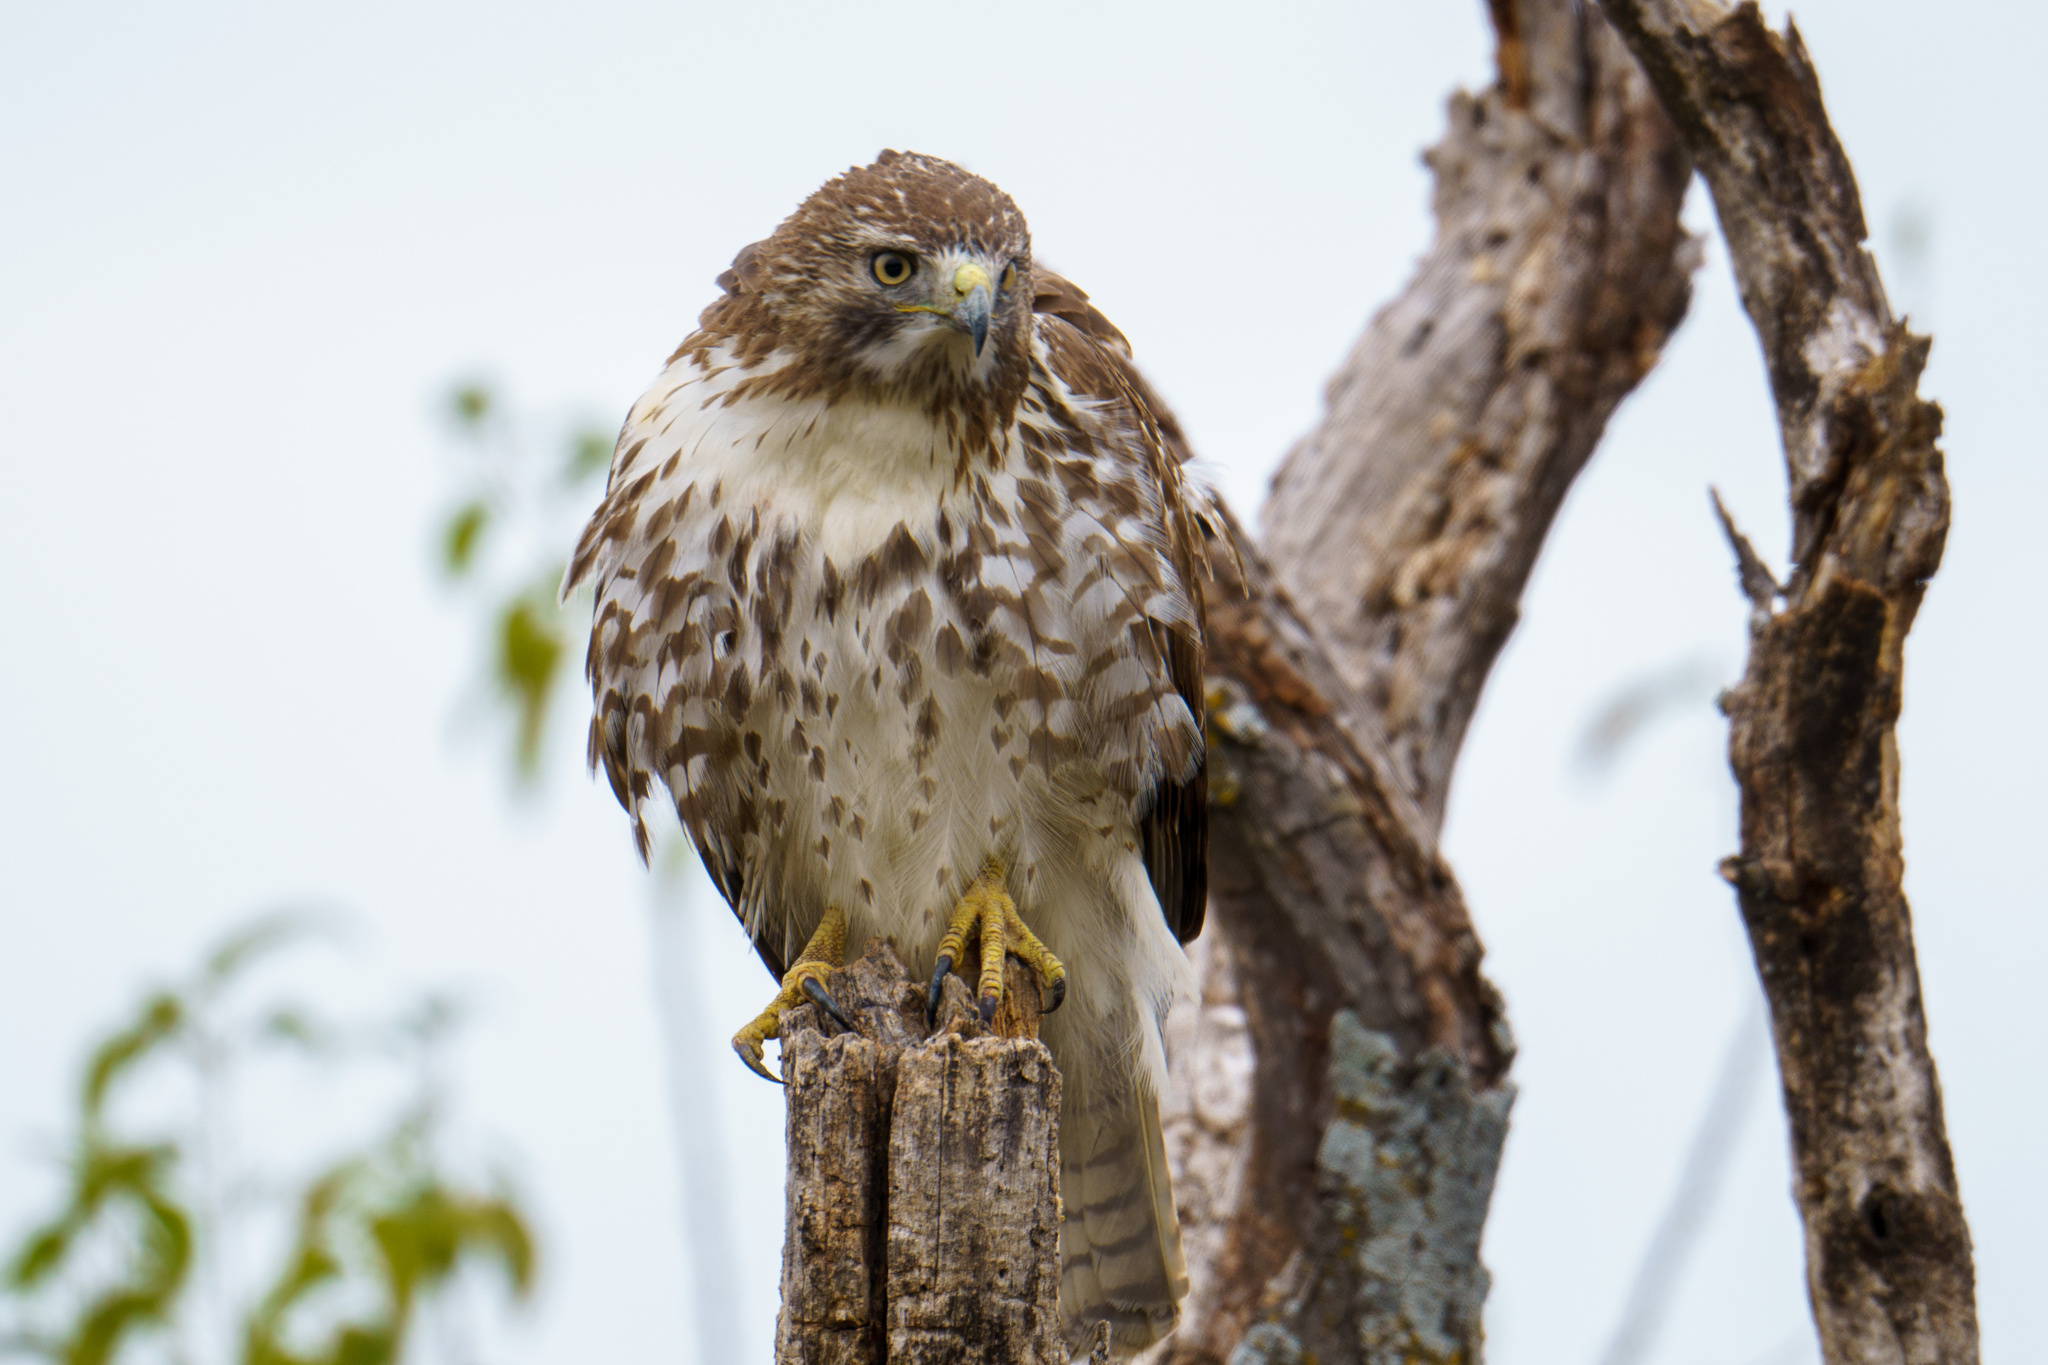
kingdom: Animalia
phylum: Chordata
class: Aves
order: Accipitriformes
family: Accipitridae
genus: Buteo
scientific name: Buteo jamaicensis
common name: Red-tailed hawk
